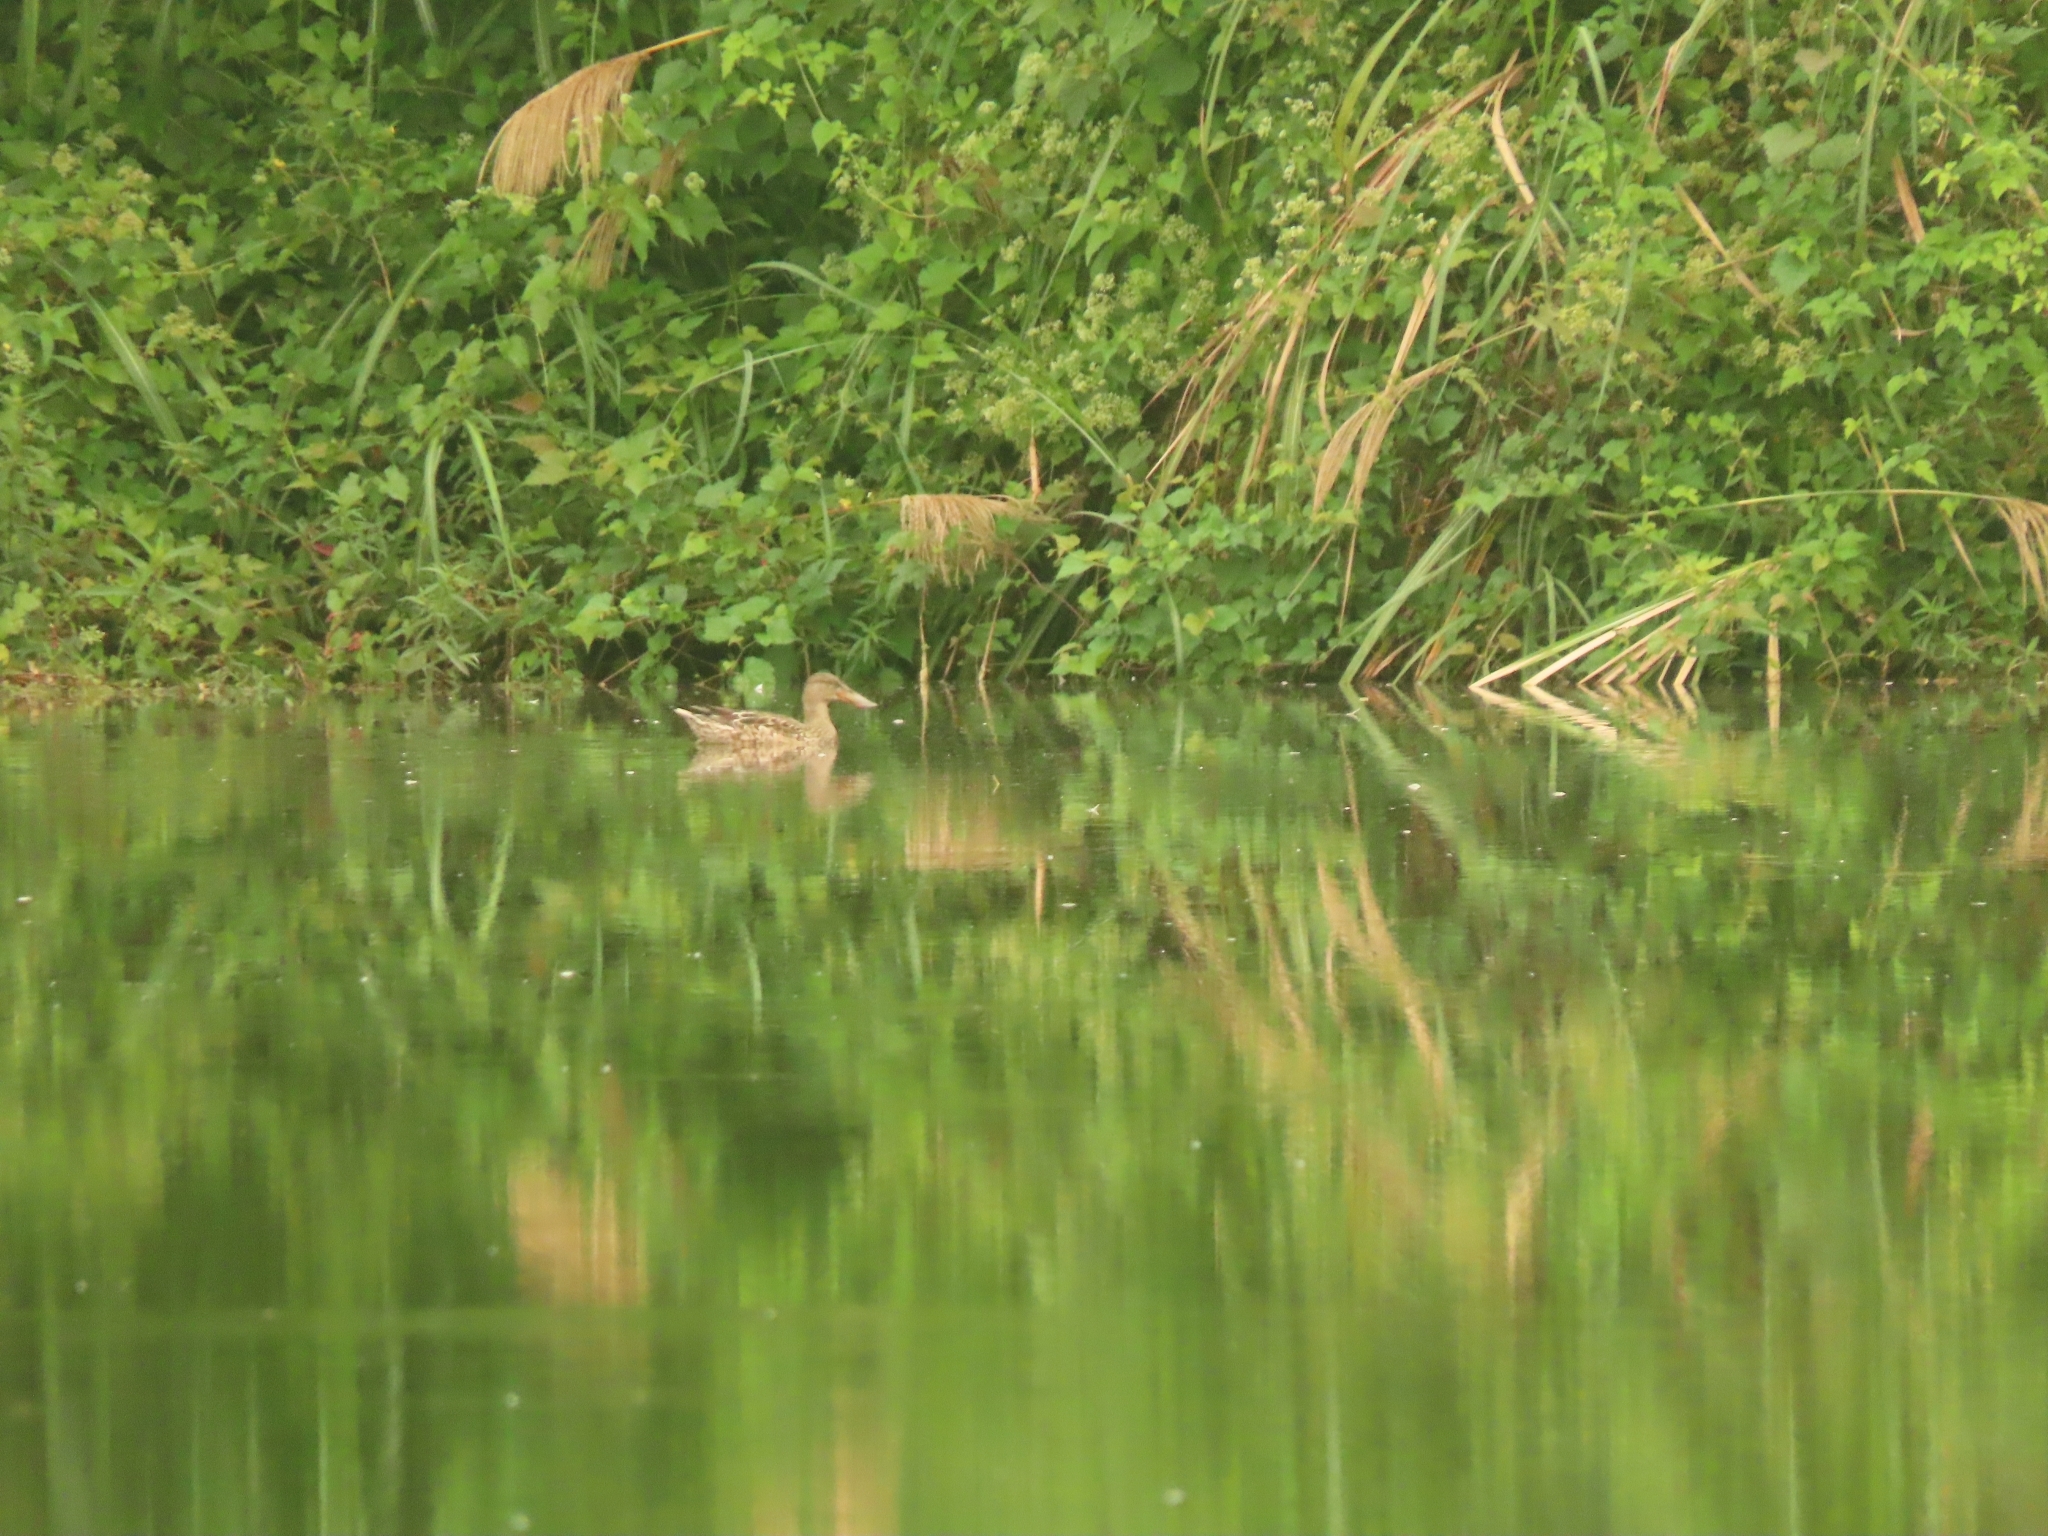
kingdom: Animalia
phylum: Chordata
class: Aves
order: Anseriformes
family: Anatidae
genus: Spatula
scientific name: Spatula clypeata
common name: Northern shoveler
